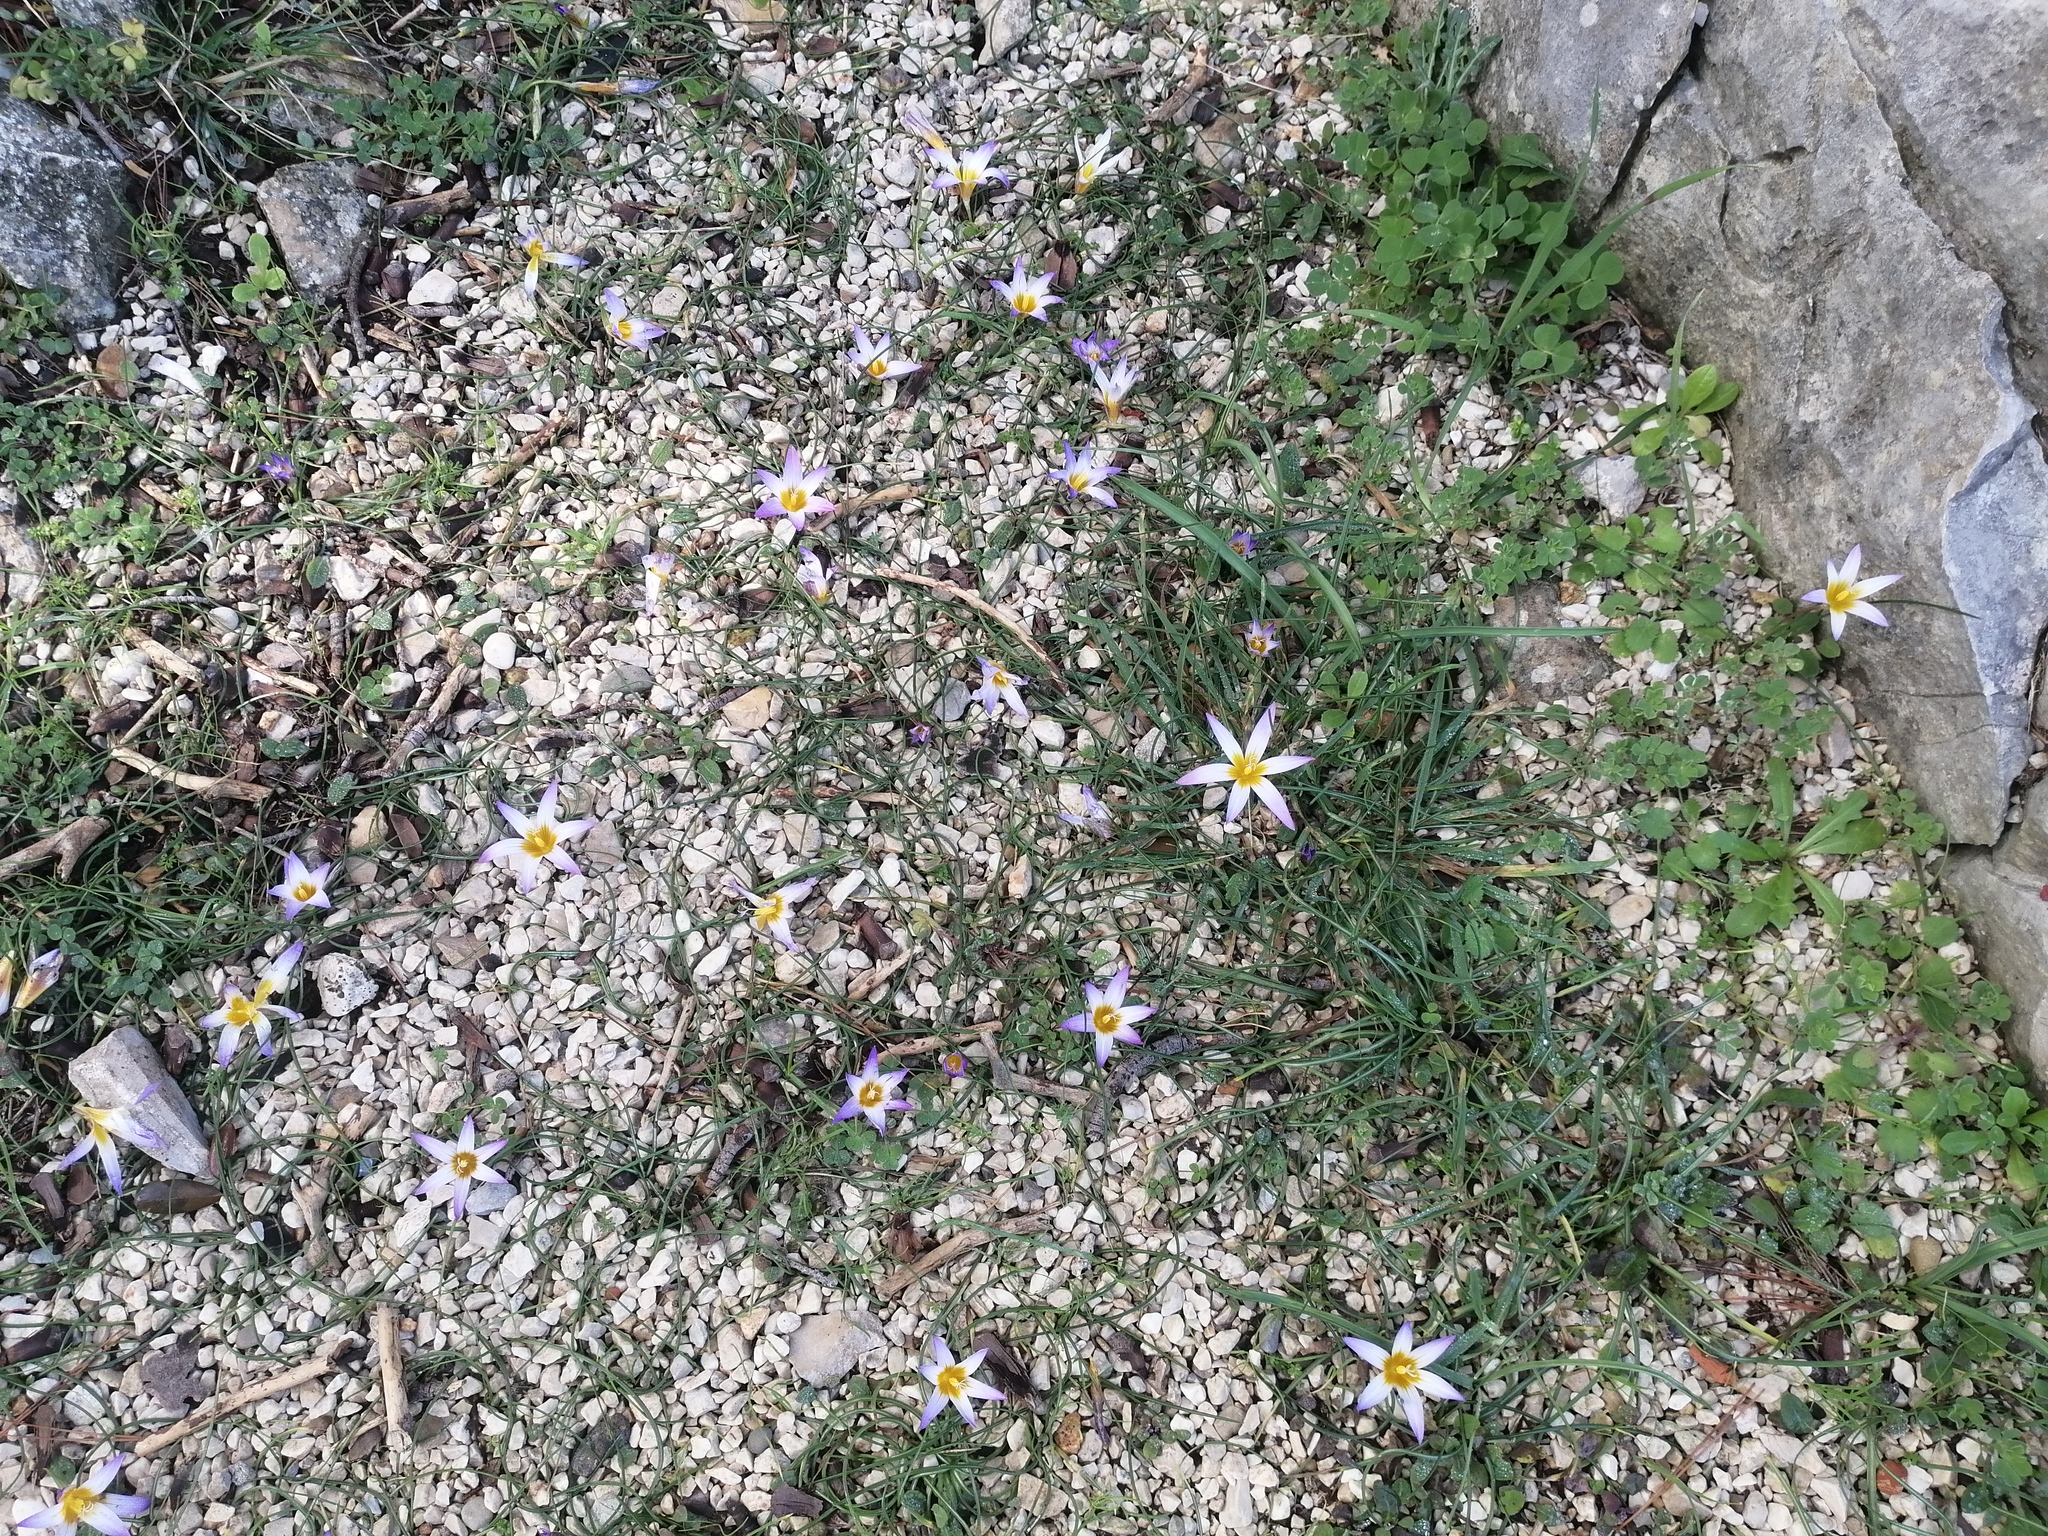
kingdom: Plantae
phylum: Tracheophyta
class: Liliopsida
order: Asparagales
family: Iridaceae
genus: Romulea
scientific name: Romulea bulbocodium
